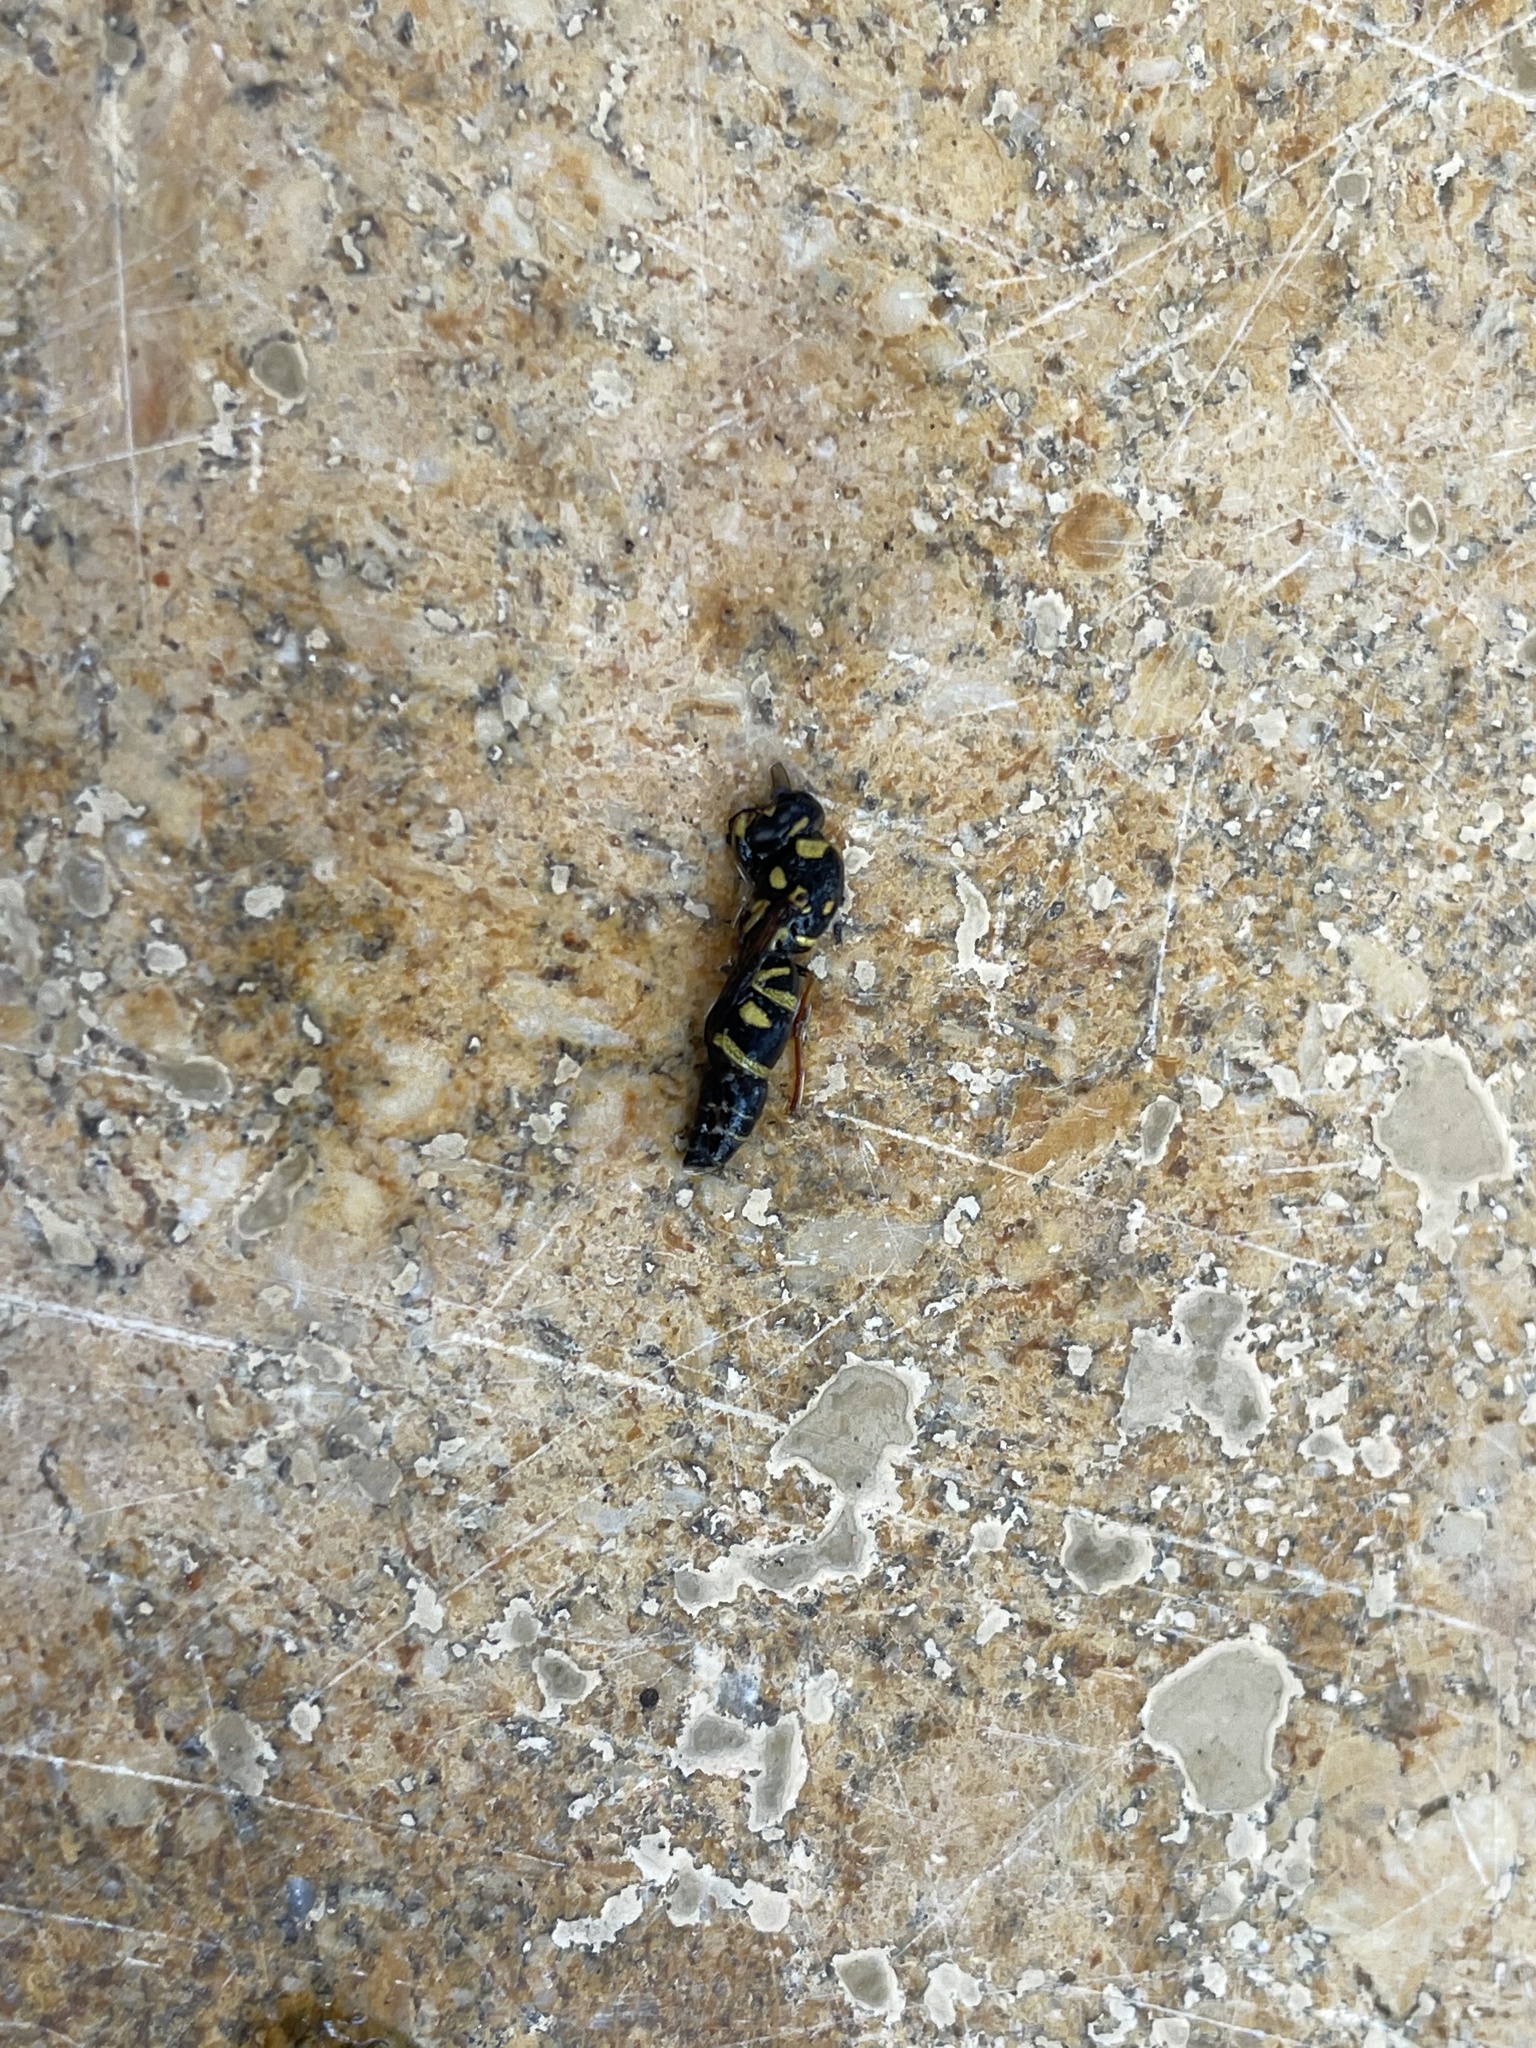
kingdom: Animalia
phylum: Arthropoda
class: Insecta
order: Hymenoptera
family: Eumenidae
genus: Parancistrocerus
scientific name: Parancistrocerus
